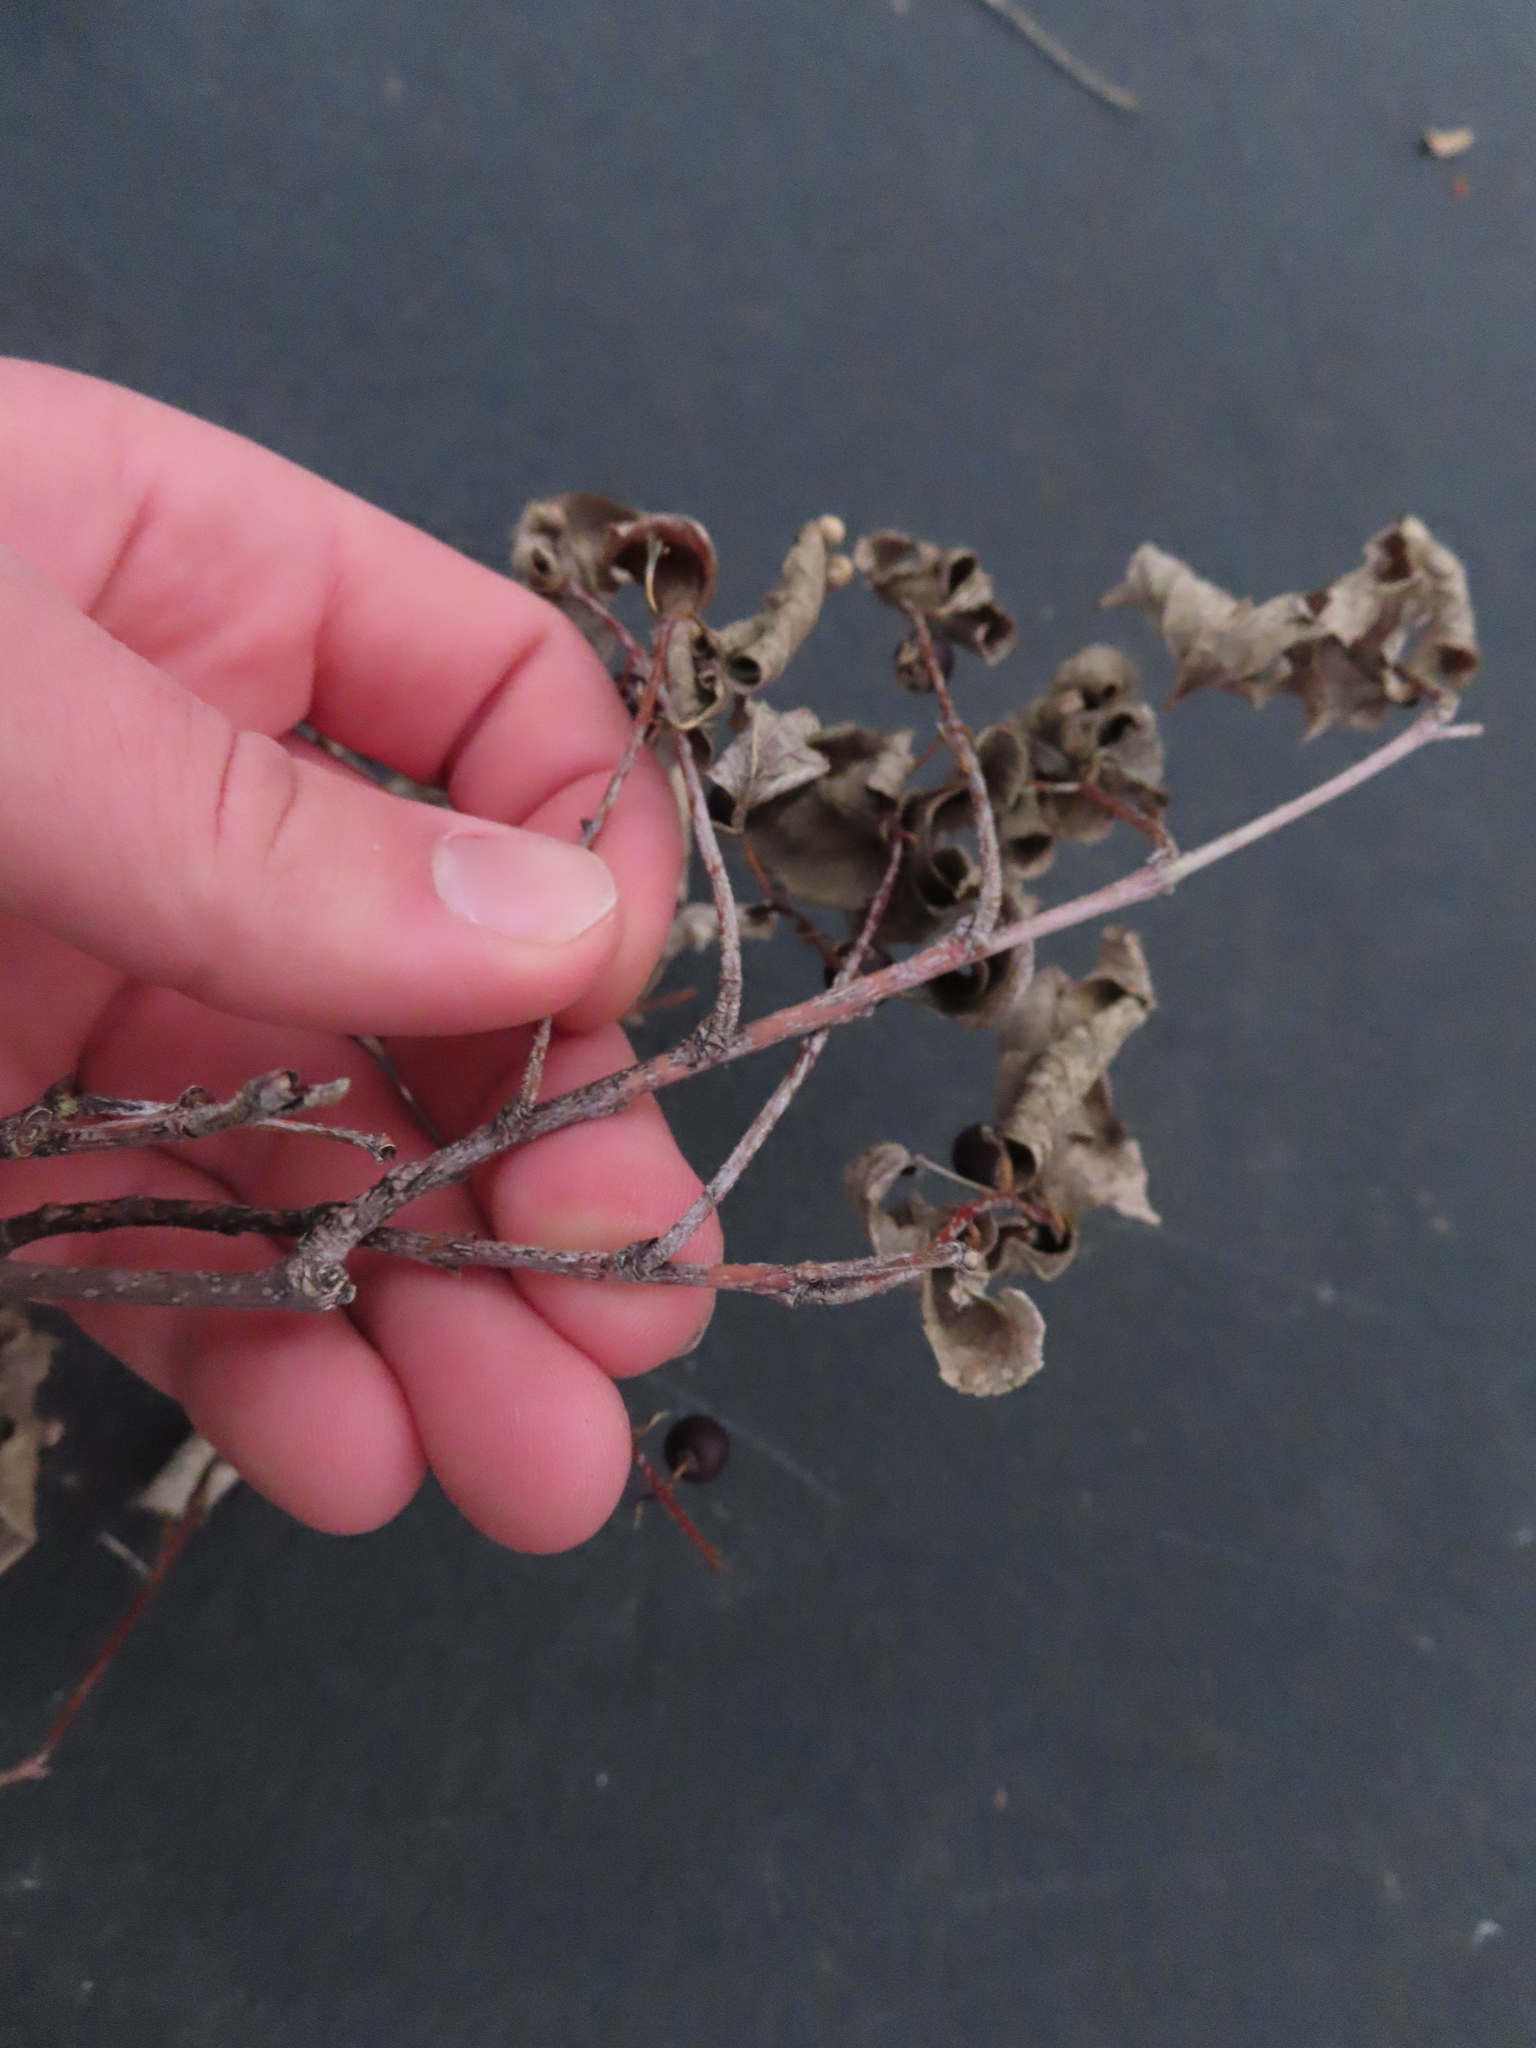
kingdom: Animalia
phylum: Arthropoda
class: Insecta
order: Hemiptera
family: Aphalaridae
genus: Pachypsylla
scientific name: Pachypsylla celtidismamma
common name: Hackberry nipplegall psyllid
